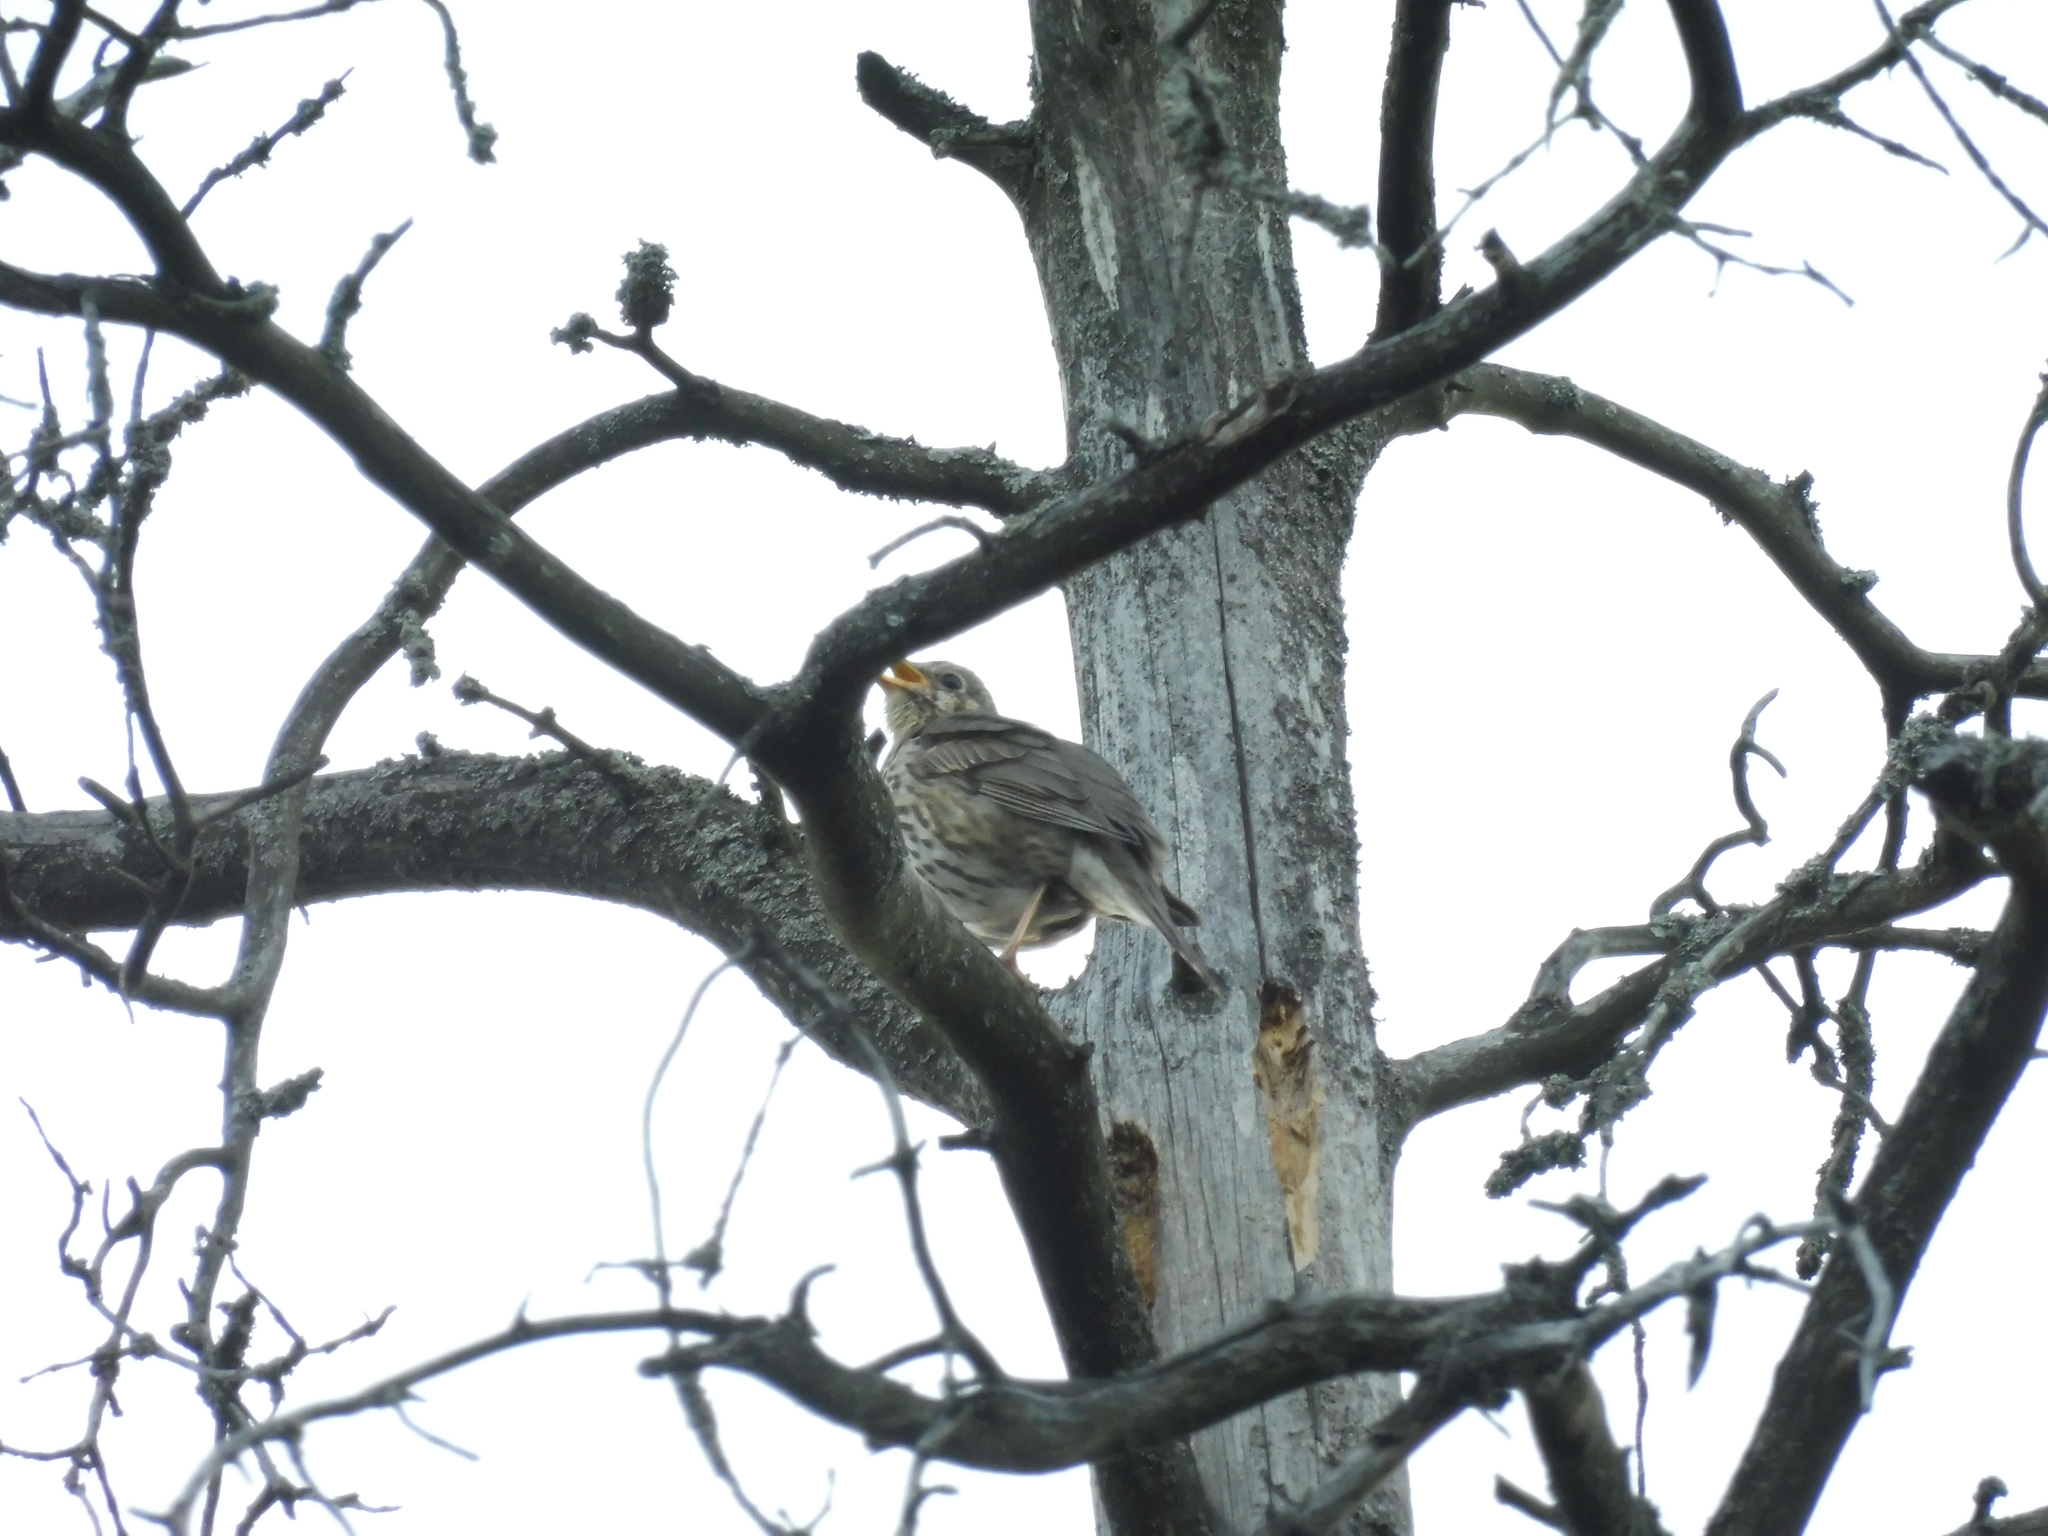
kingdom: Animalia
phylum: Chordata
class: Aves
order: Passeriformes
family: Turdidae
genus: Turdus
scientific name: Turdus philomelos
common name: Song thrush
